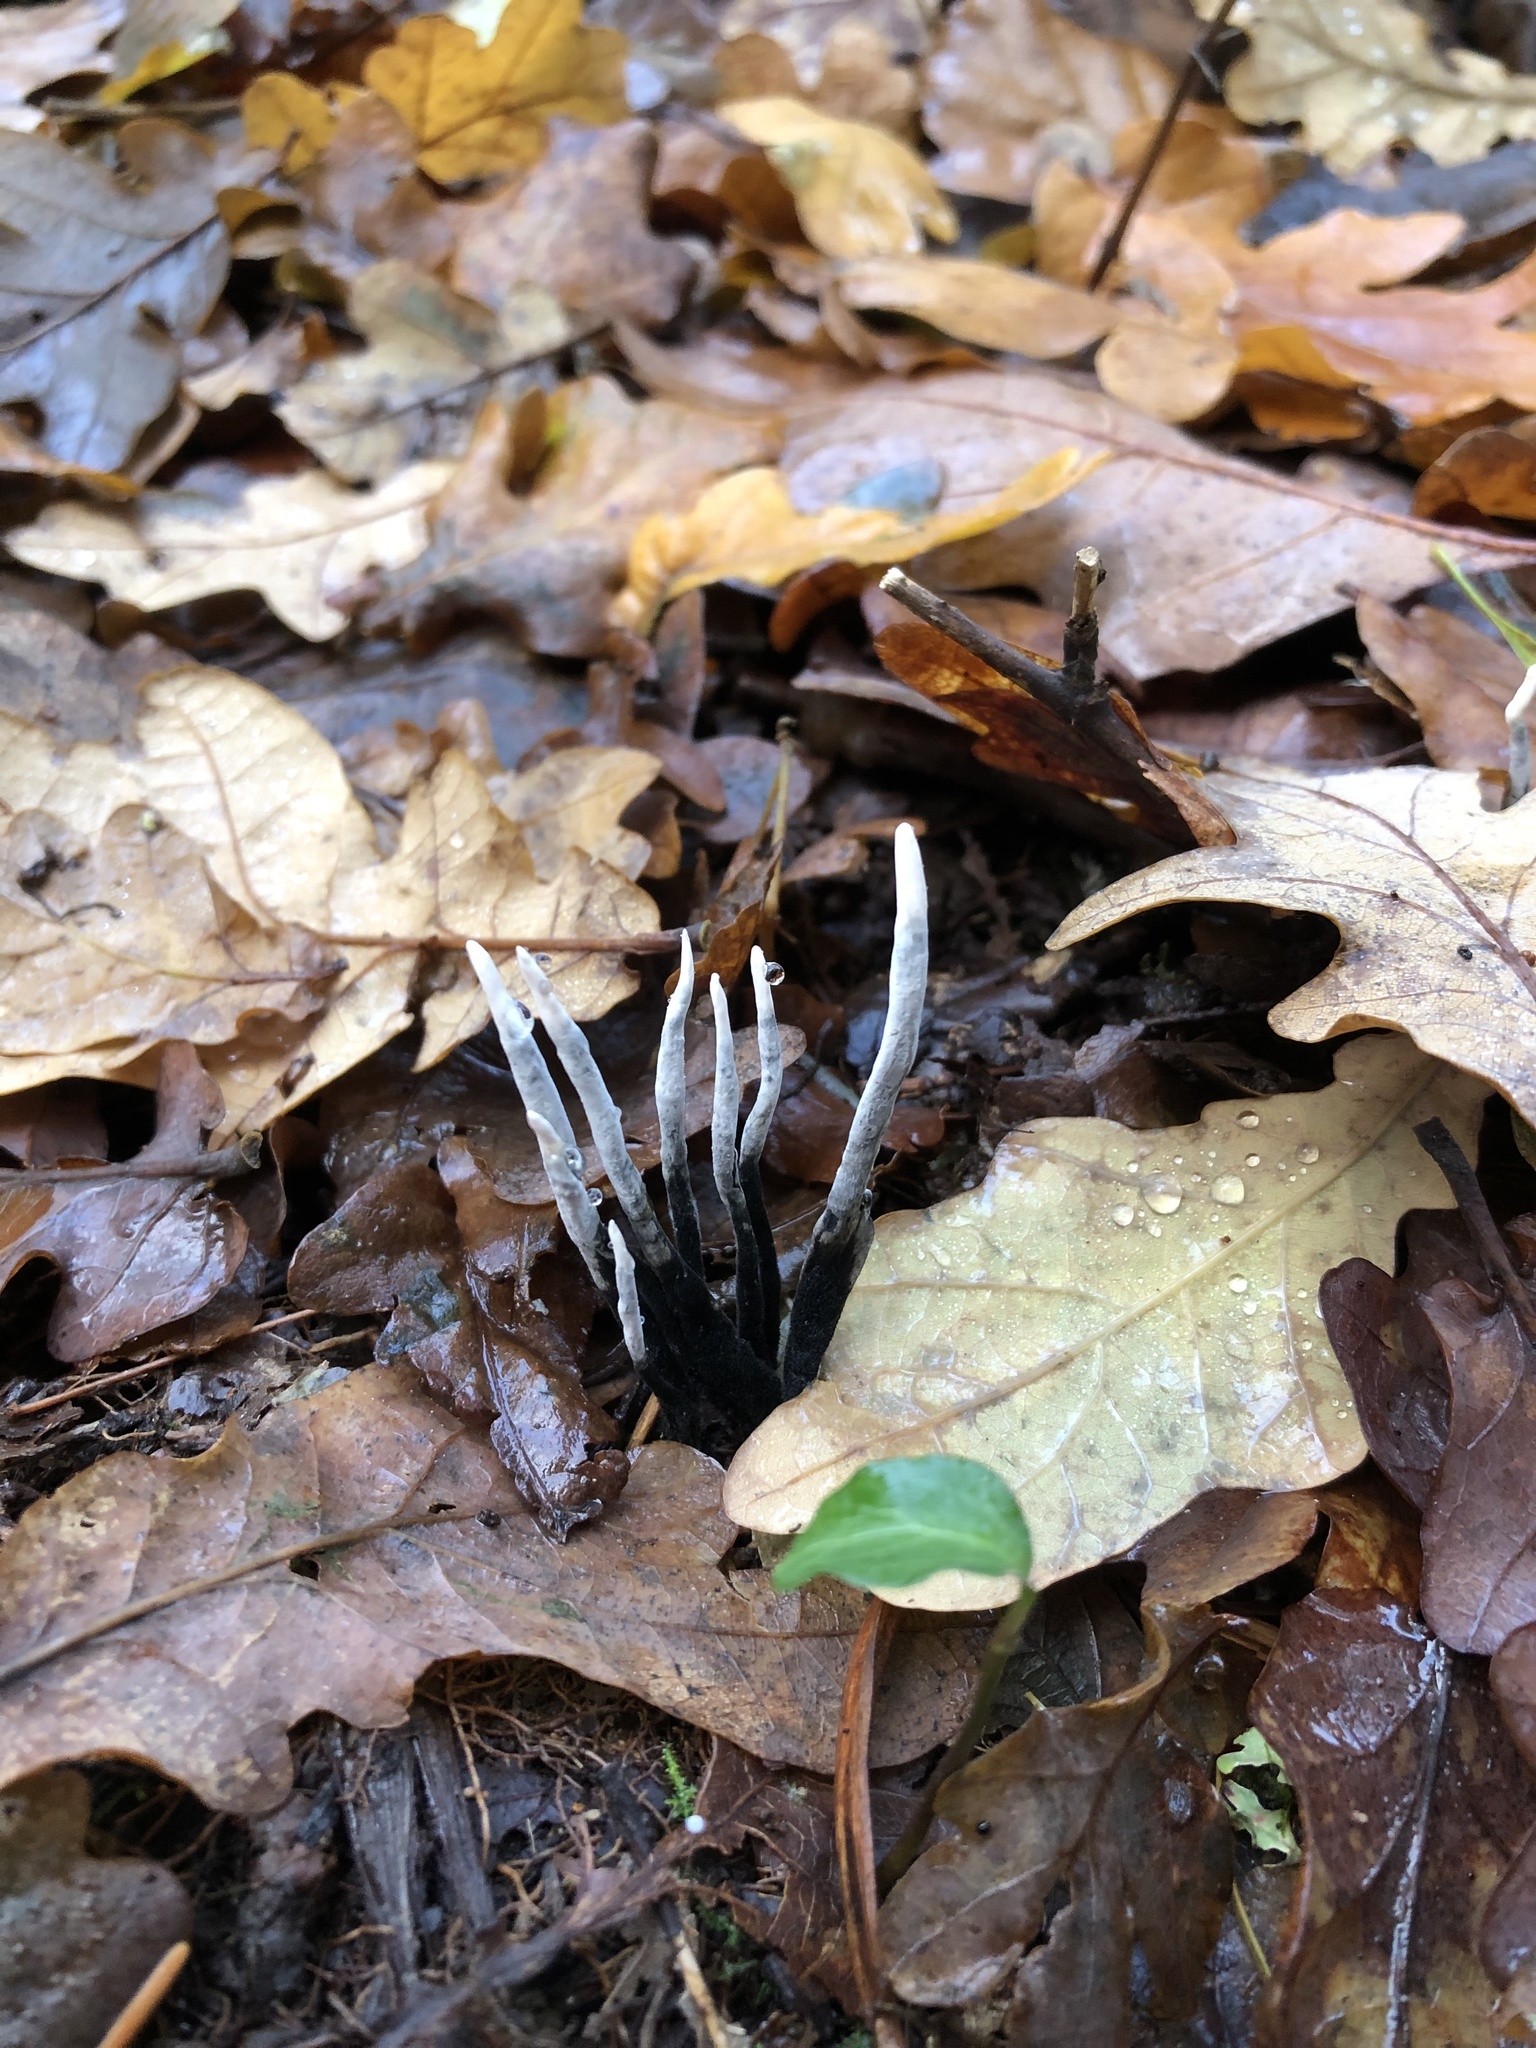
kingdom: Fungi
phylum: Ascomycota
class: Sordariomycetes
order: Xylariales
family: Xylariaceae
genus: Xylaria
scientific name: Xylaria hypoxylon
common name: Candle-snuff fungus
